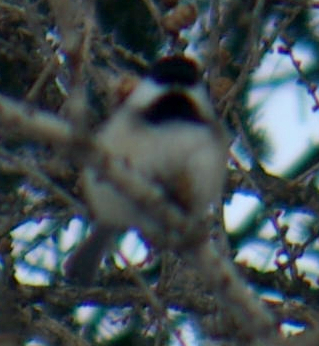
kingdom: Animalia
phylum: Chordata
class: Aves
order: Passeriformes
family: Paridae
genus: Poecile
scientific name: Poecile atricapillus
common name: Black-capped chickadee
